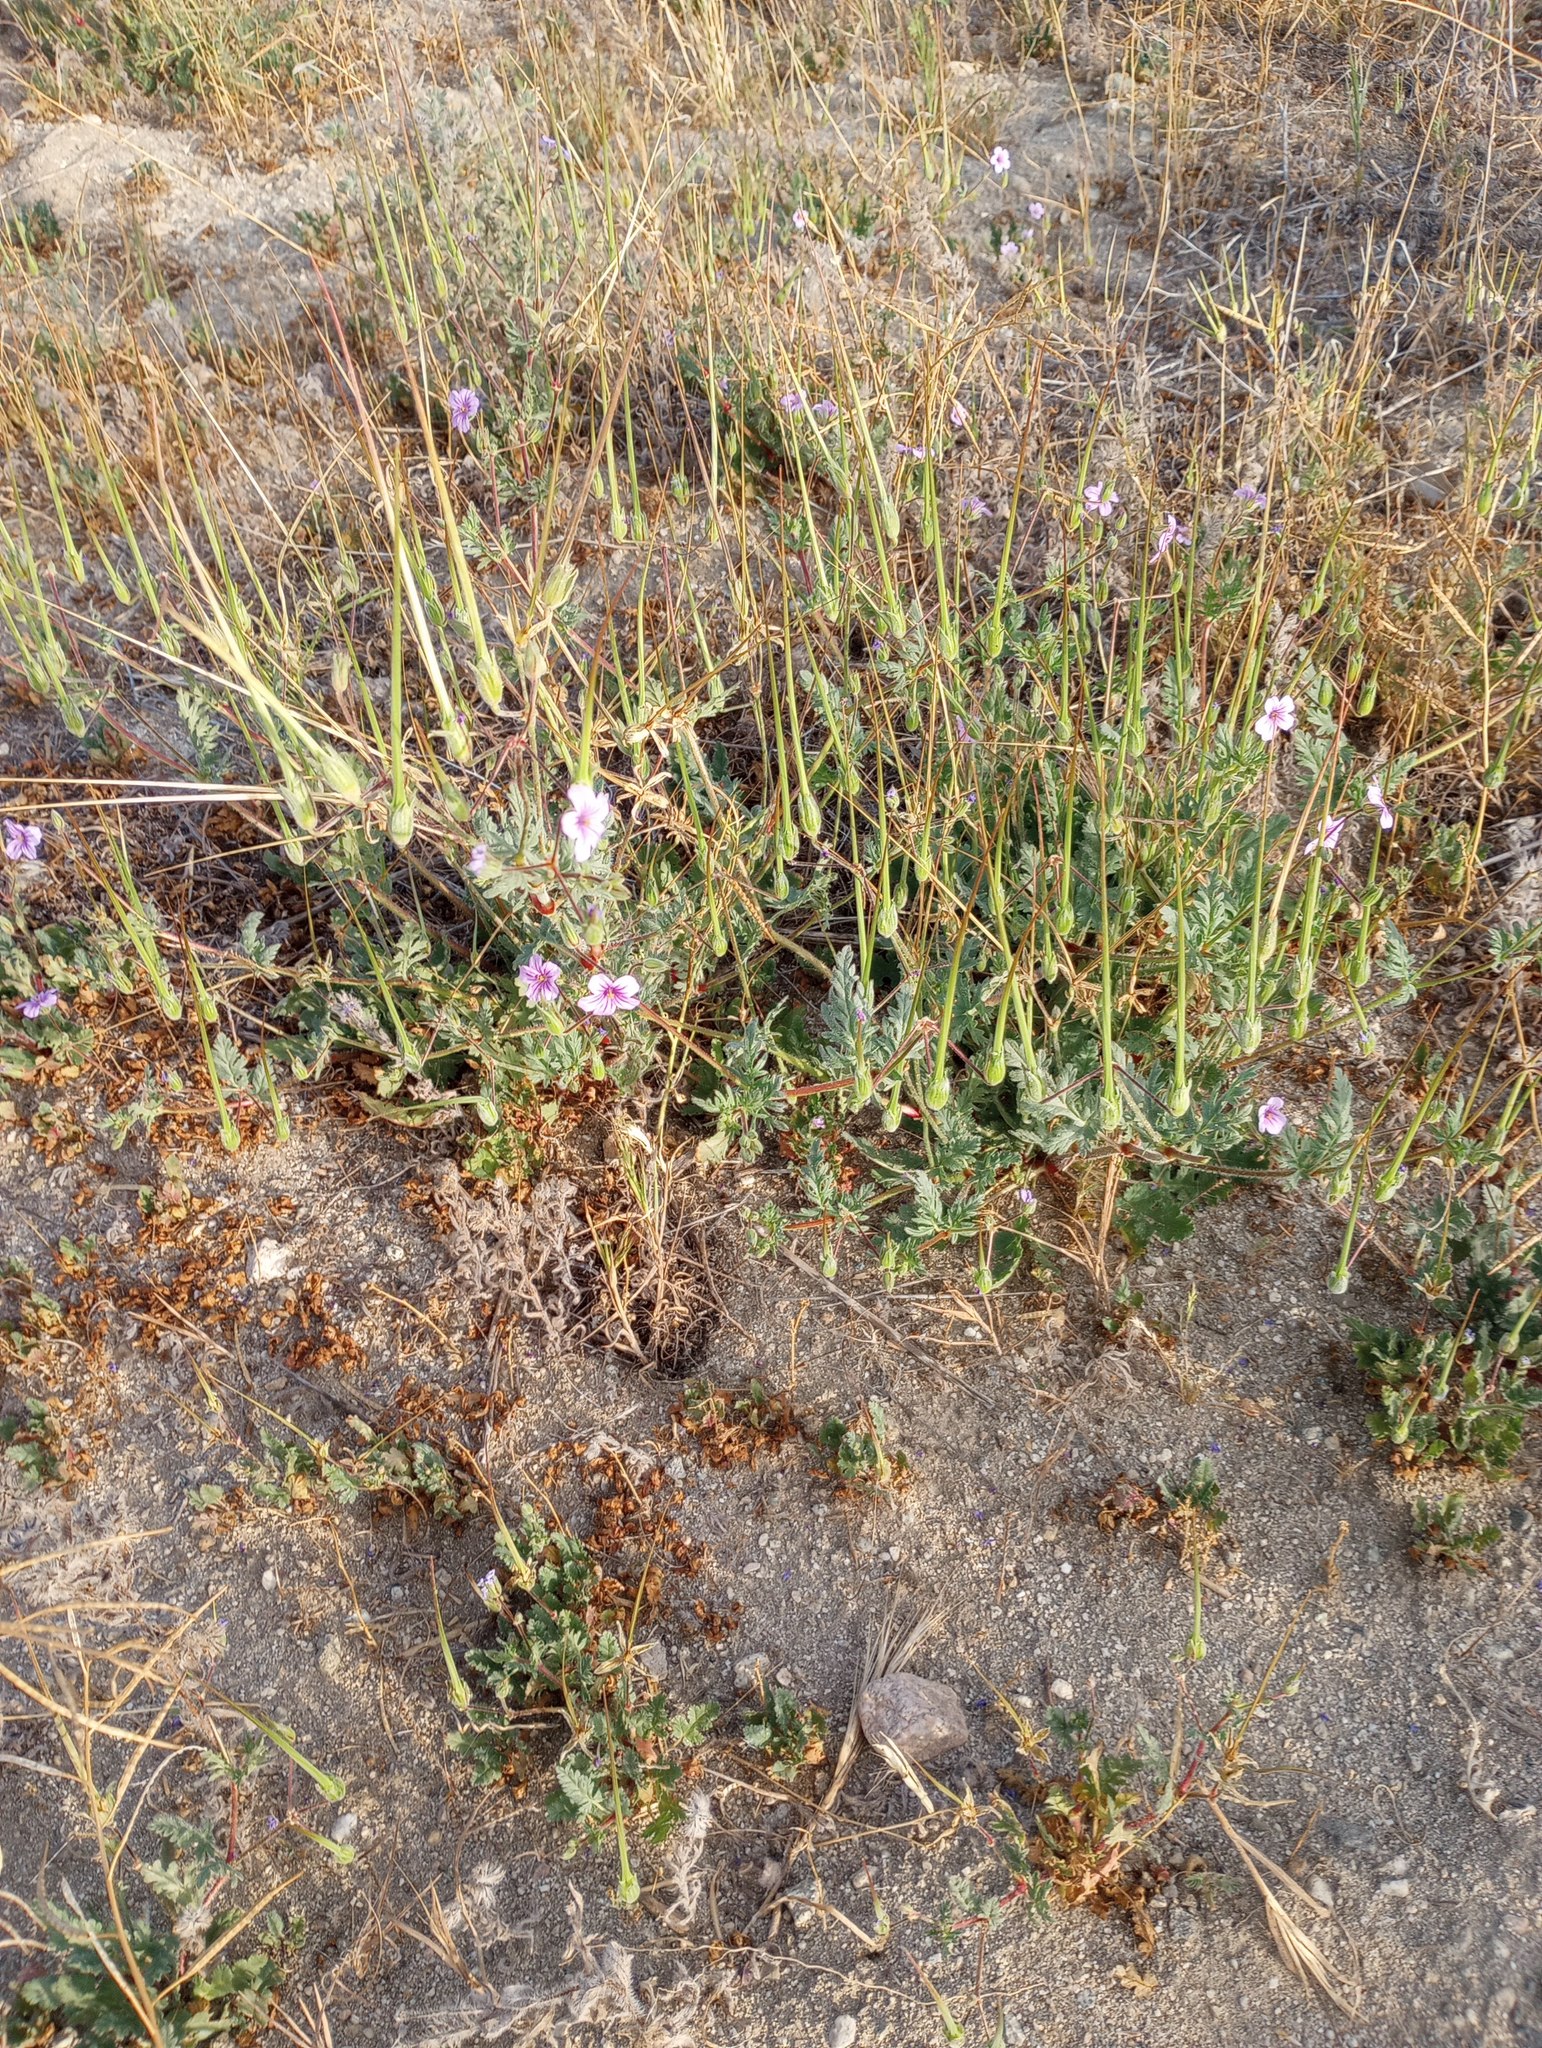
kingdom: Plantae
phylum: Tracheophyta
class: Magnoliopsida
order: Geraniales
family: Geraniaceae
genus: Erodium
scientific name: Erodium botrys
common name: Mediterranean stork's-bill
